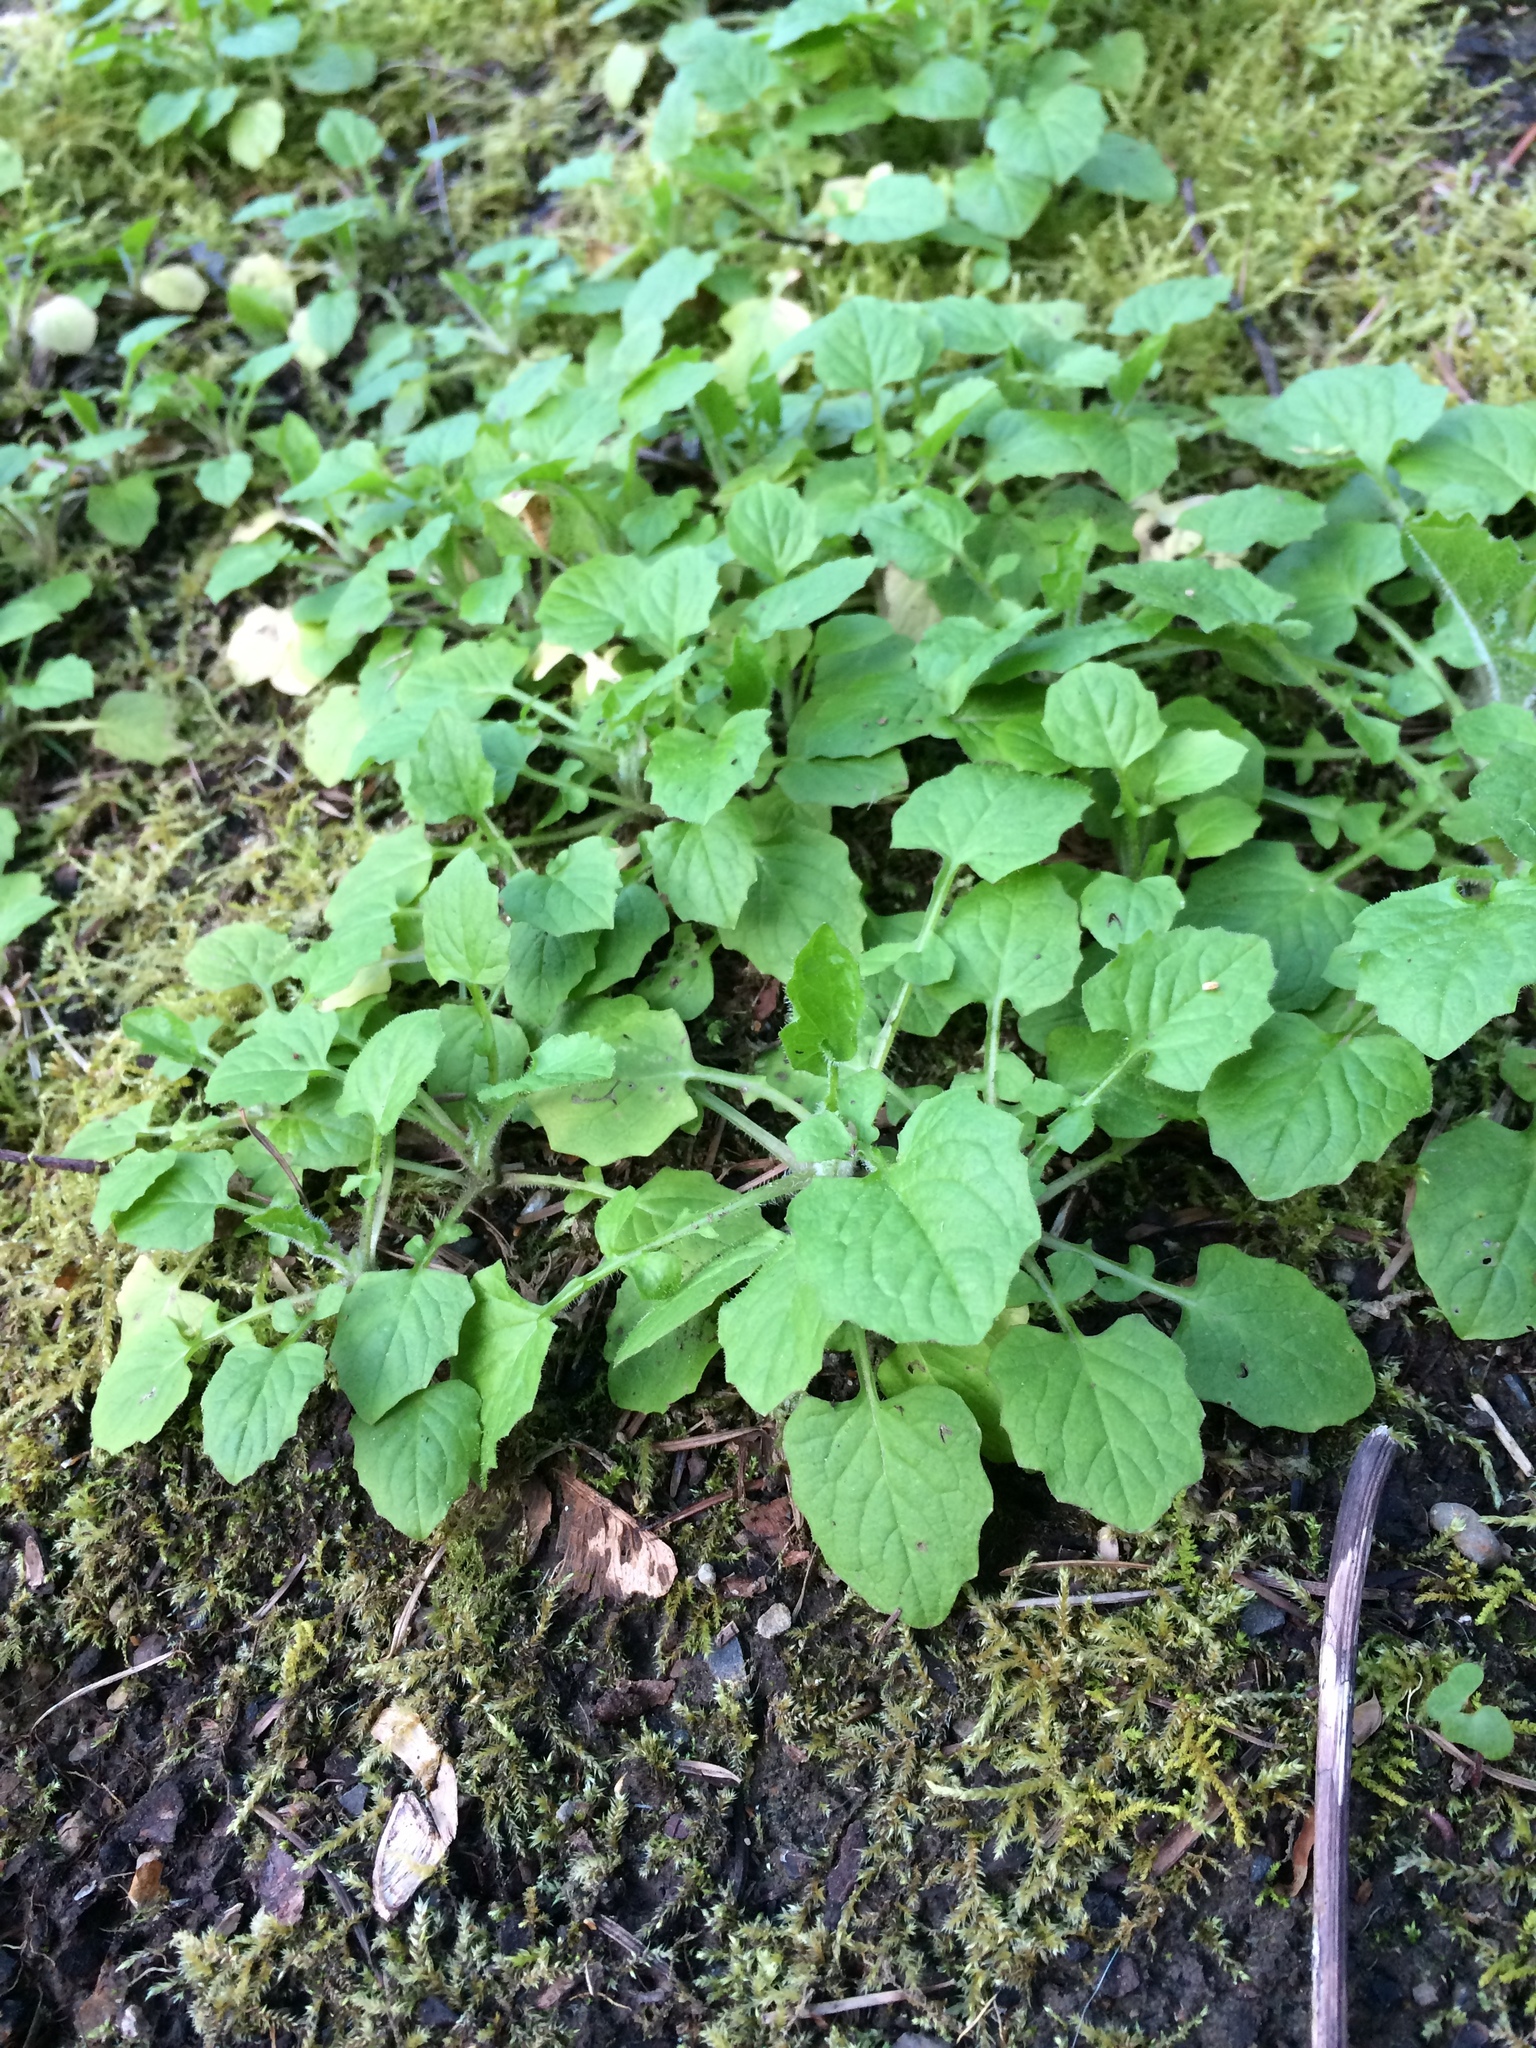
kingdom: Plantae
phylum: Tracheophyta
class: Magnoliopsida
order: Asterales
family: Asteraceae
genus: Lapsana
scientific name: Lapsana communis
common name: Nipplewort
